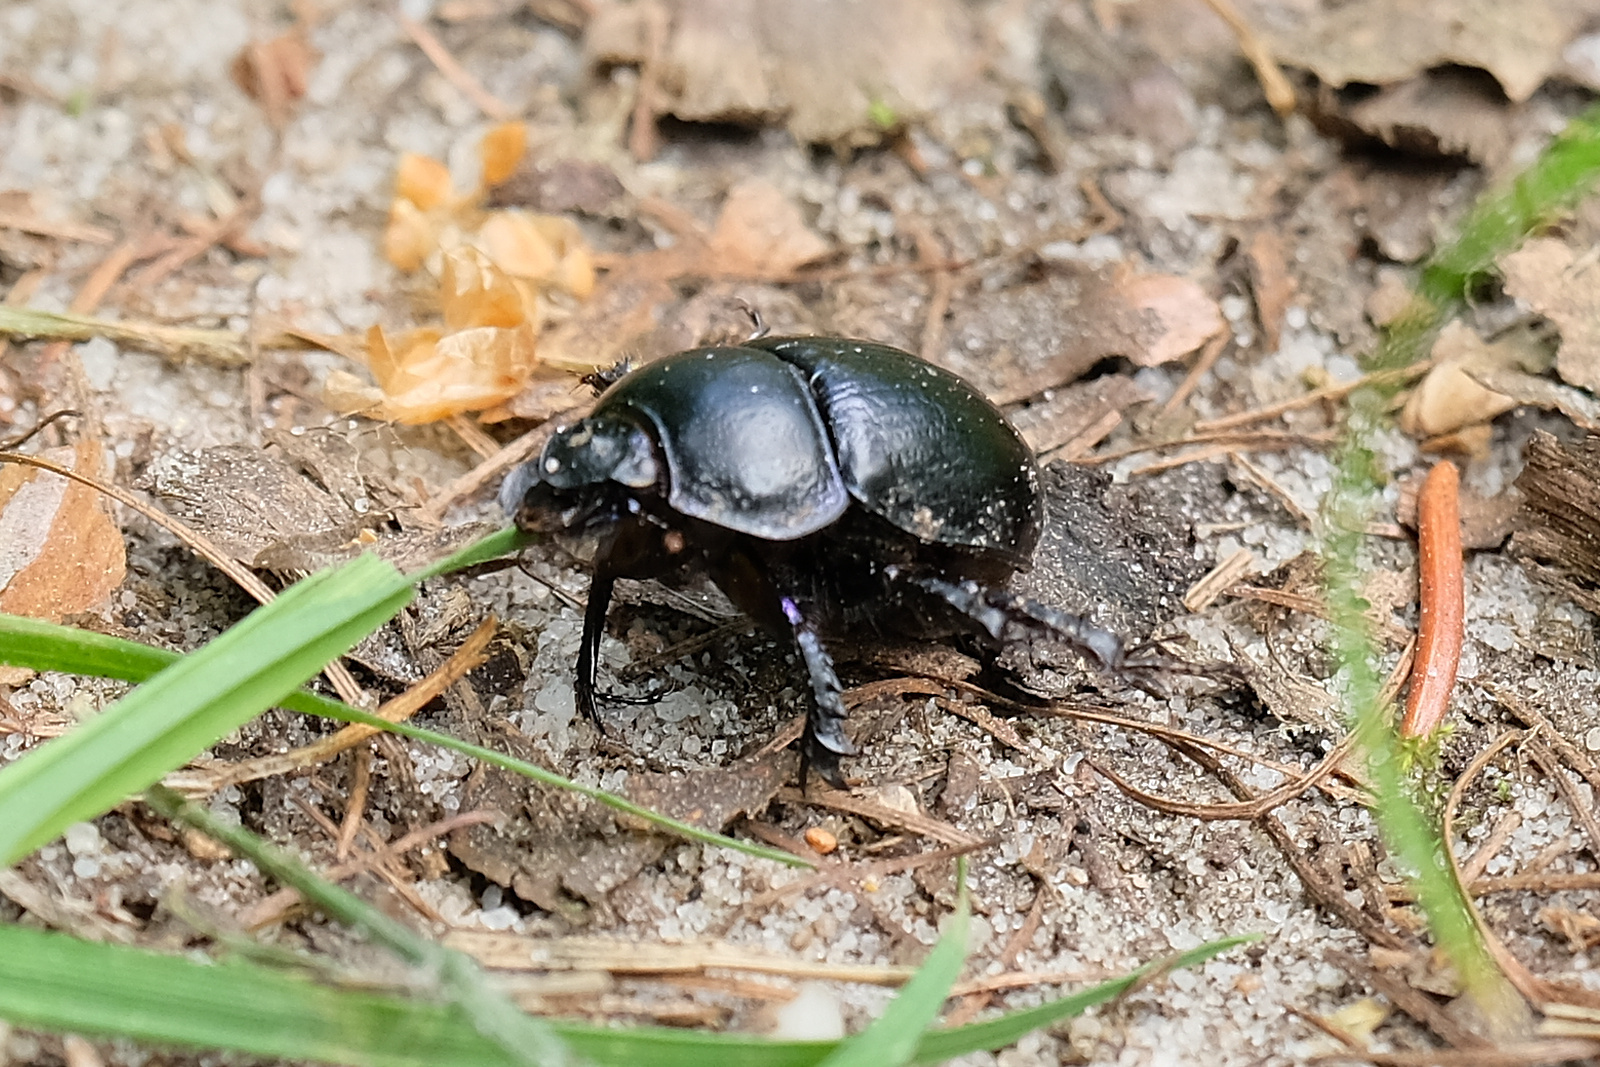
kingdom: Animalia
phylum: Arthropoda
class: Insecta
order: Coleoptera
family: Geotrupidae
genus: Anoplotrupes
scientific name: Anoplotrupes stercorosus
